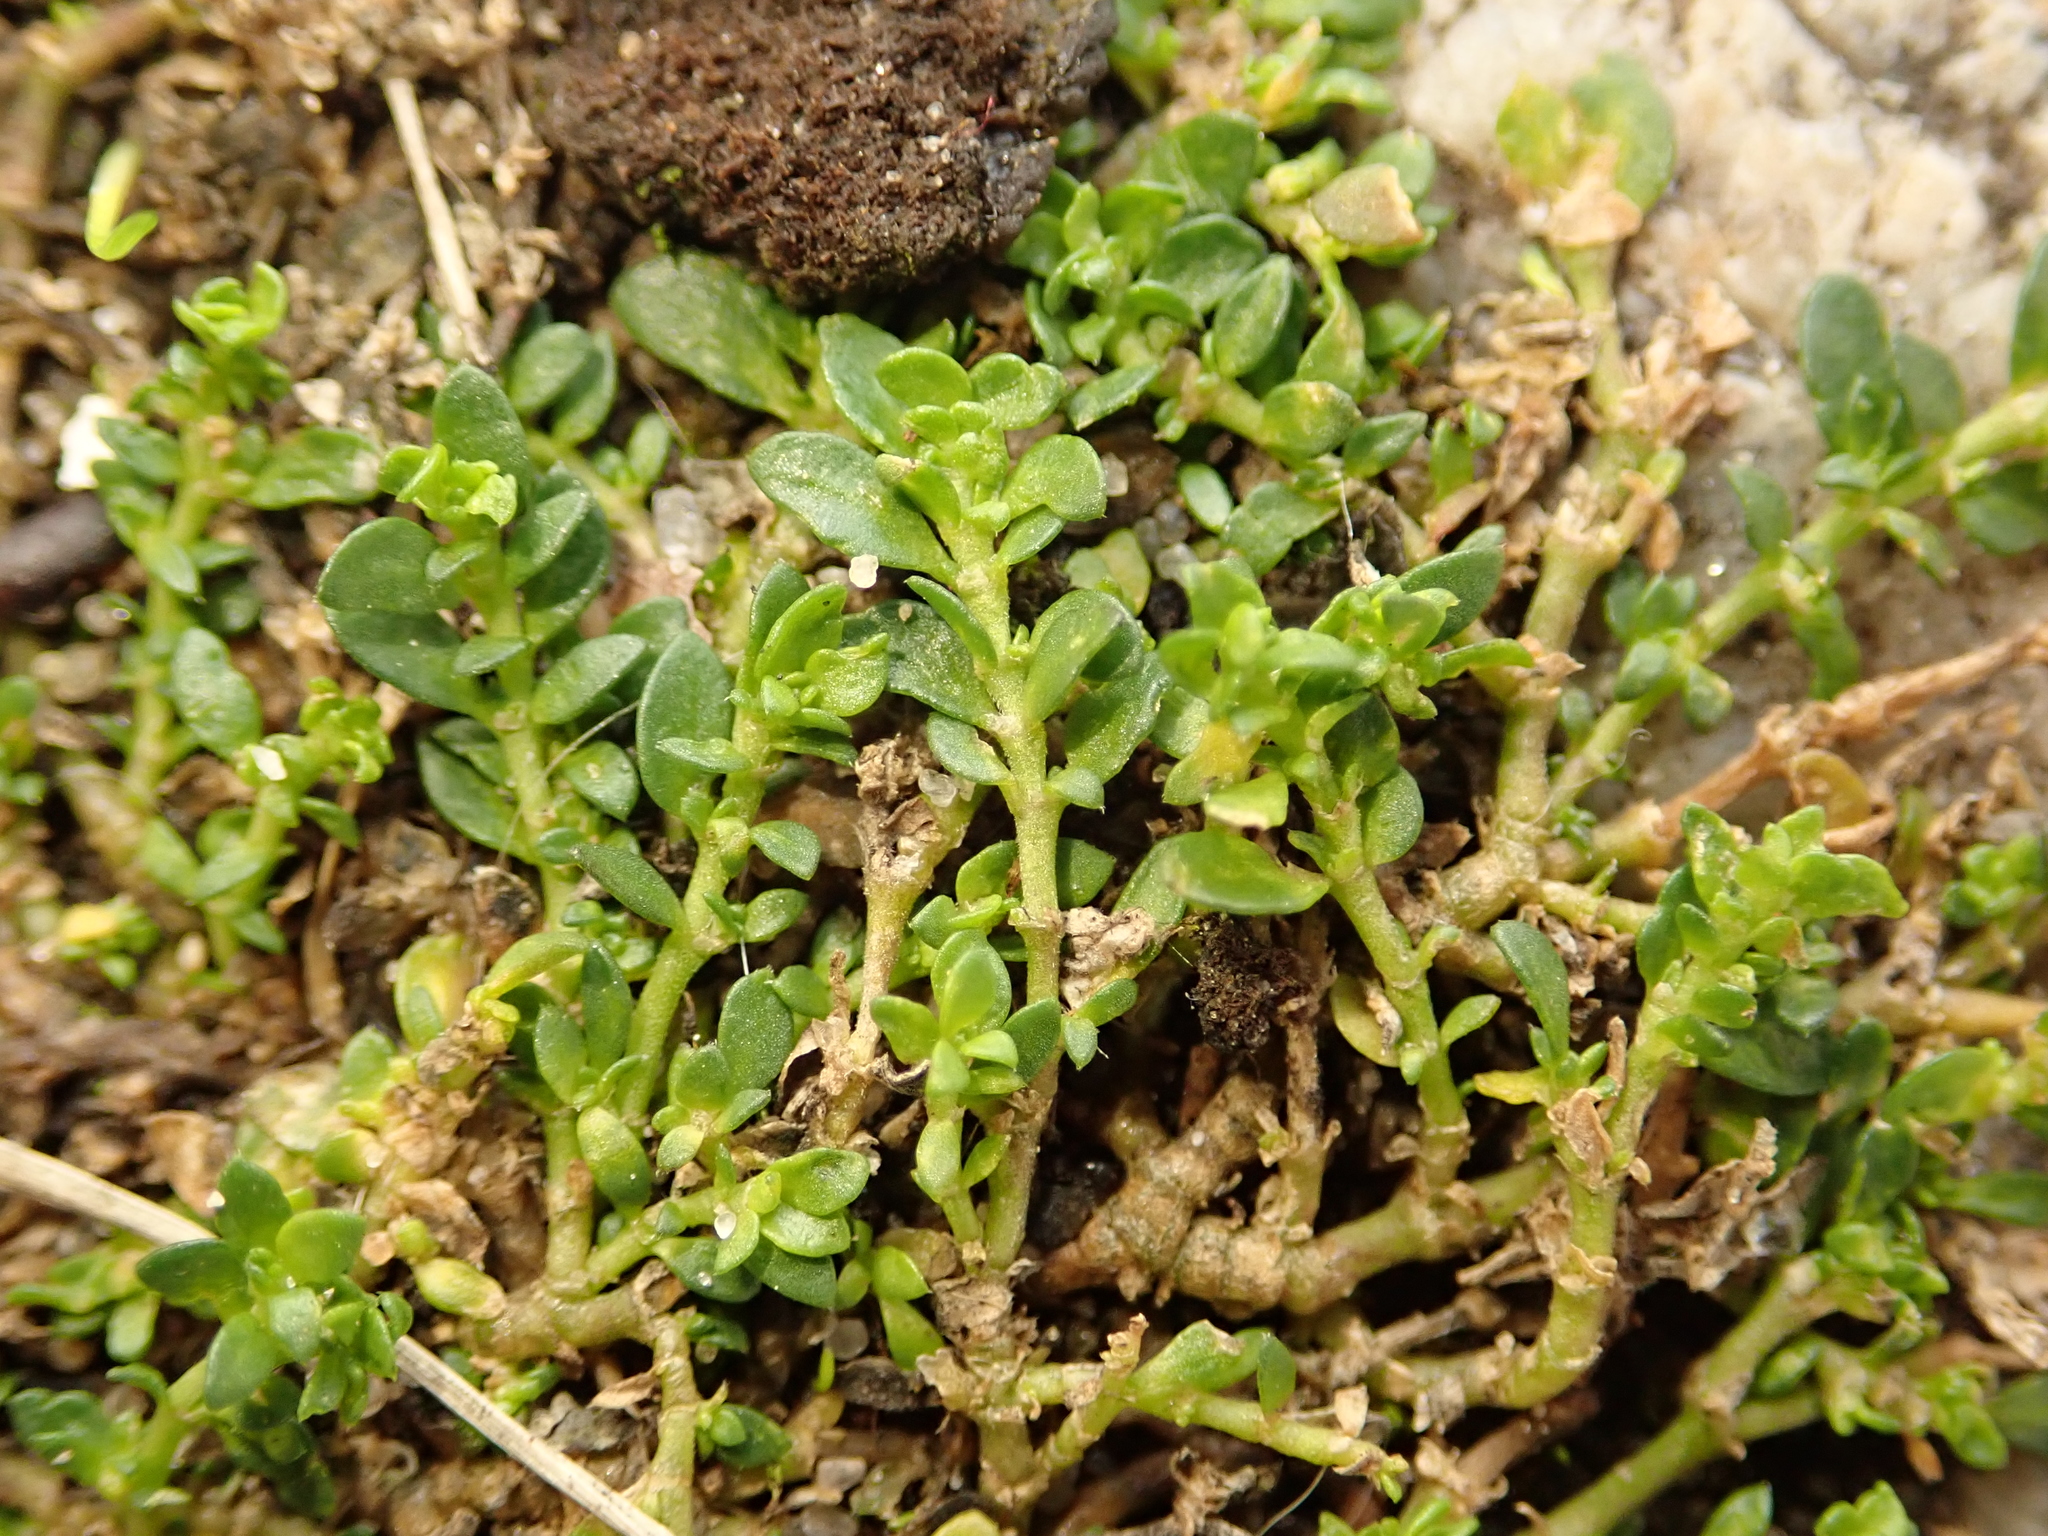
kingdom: Plantae
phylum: Tracheophyta
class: Magnoliopsida
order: Caryophyllales
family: Caryophyllaceae
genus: Herniaria
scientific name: Herniaria glabra
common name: Smooth rupturewort
